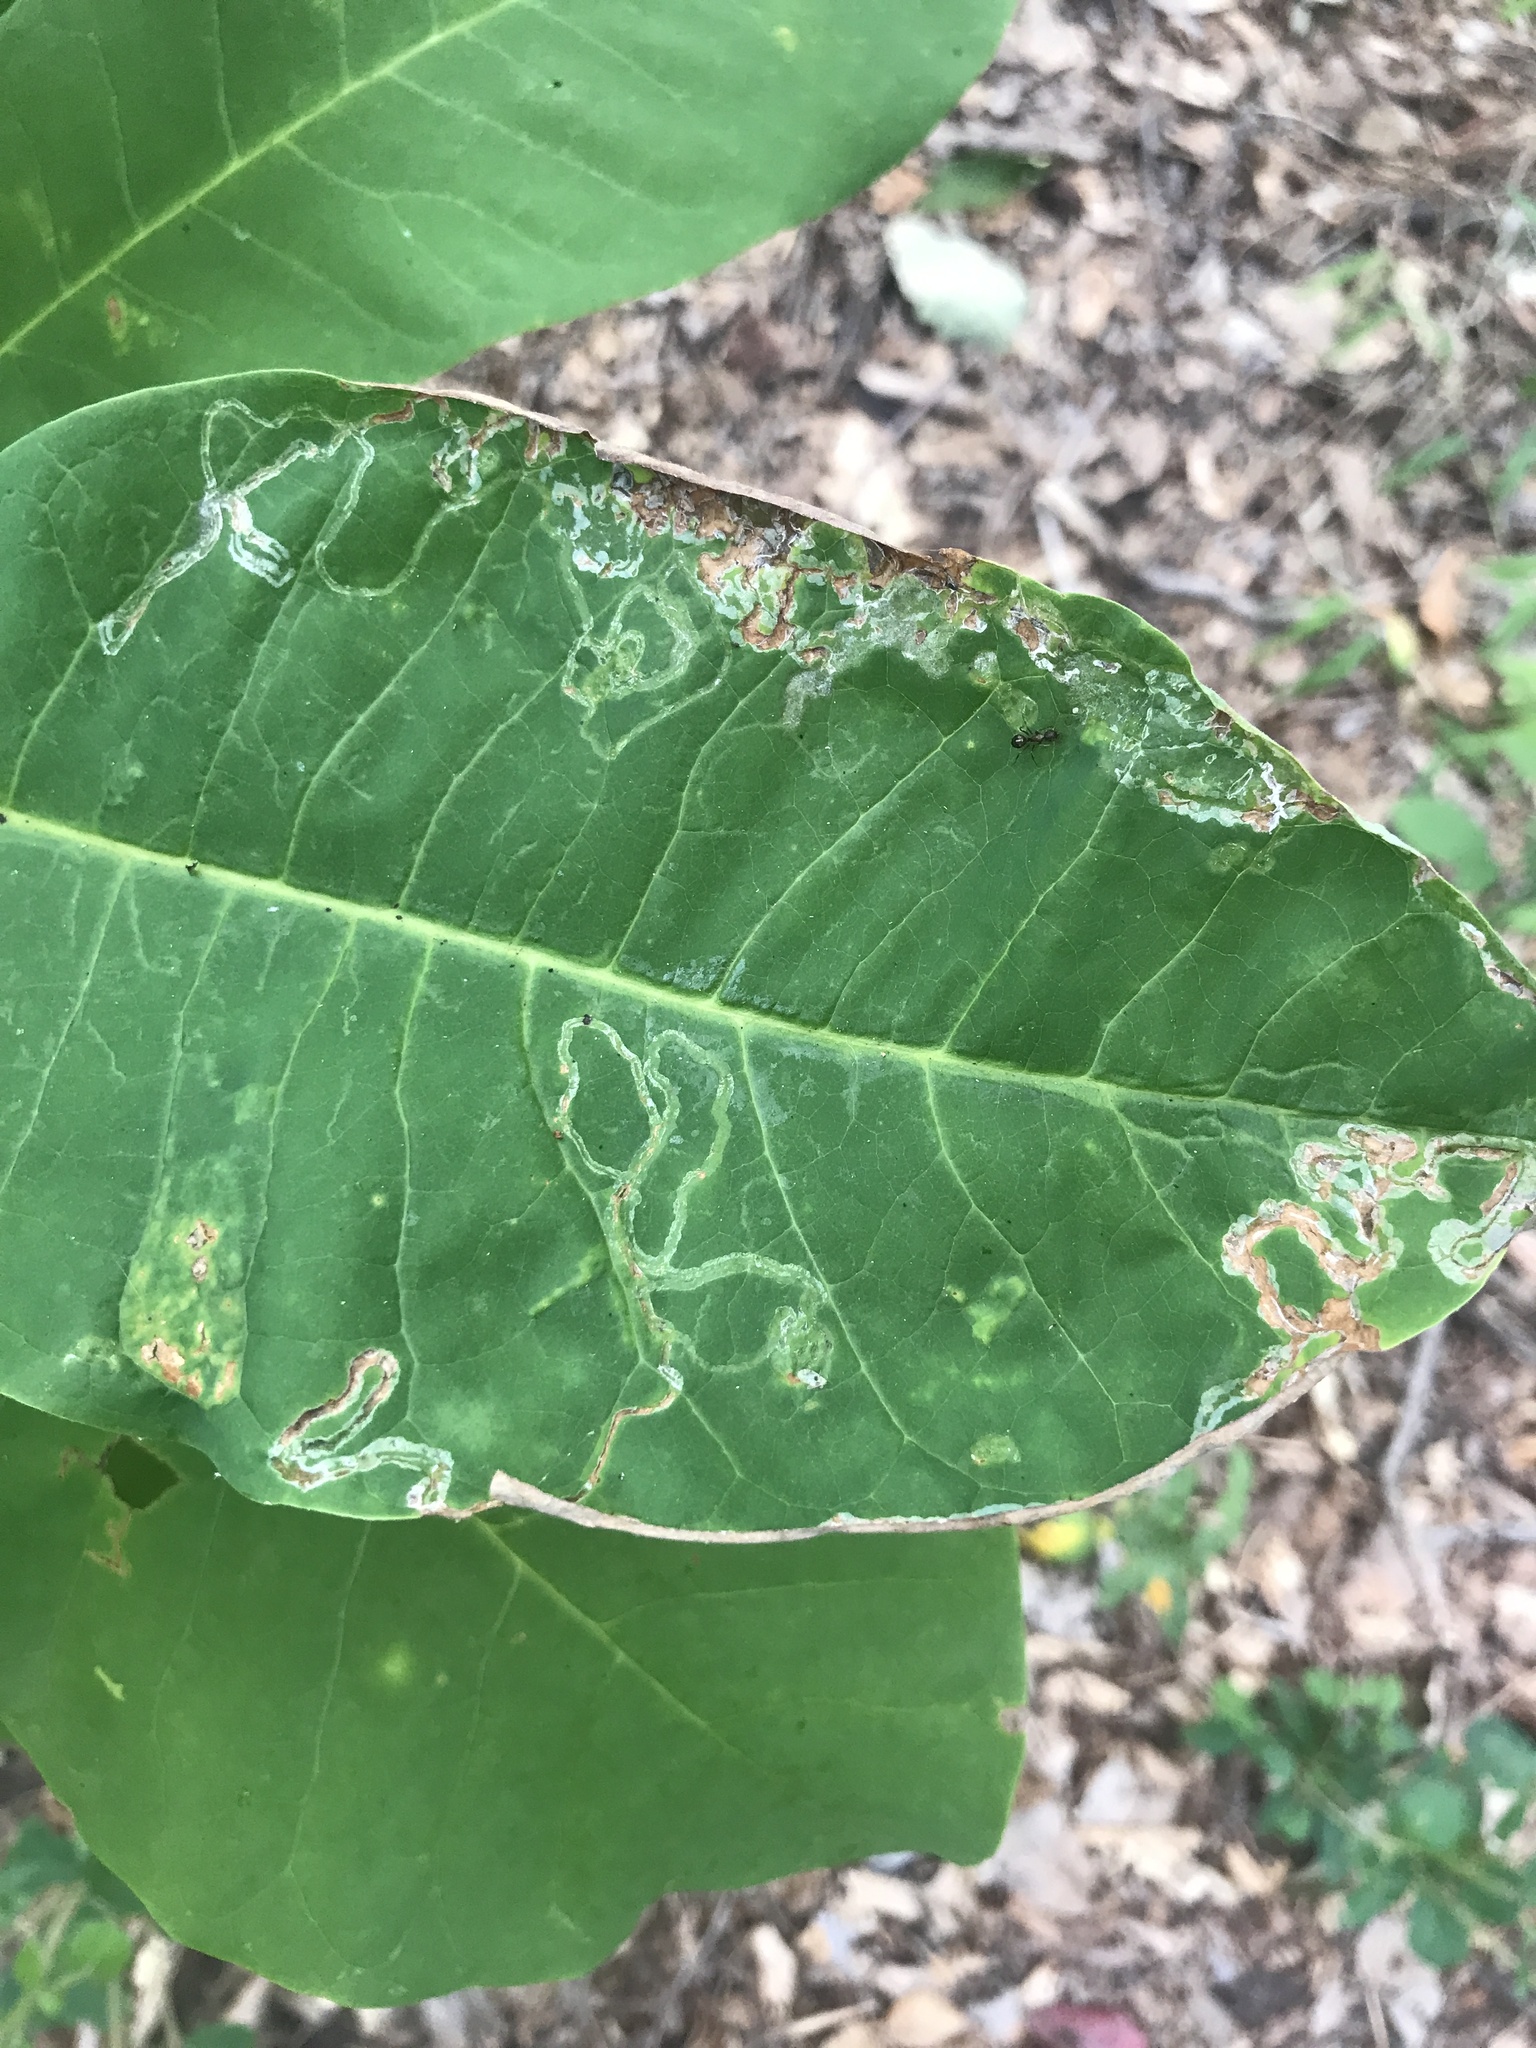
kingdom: Animalia
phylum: Arthropoda
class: Insecta
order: Lepidoptera
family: Gracillariidae
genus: Phyllocnistis
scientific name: Phyllocnistis liriodendronella
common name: Tulip tree leaf miner
